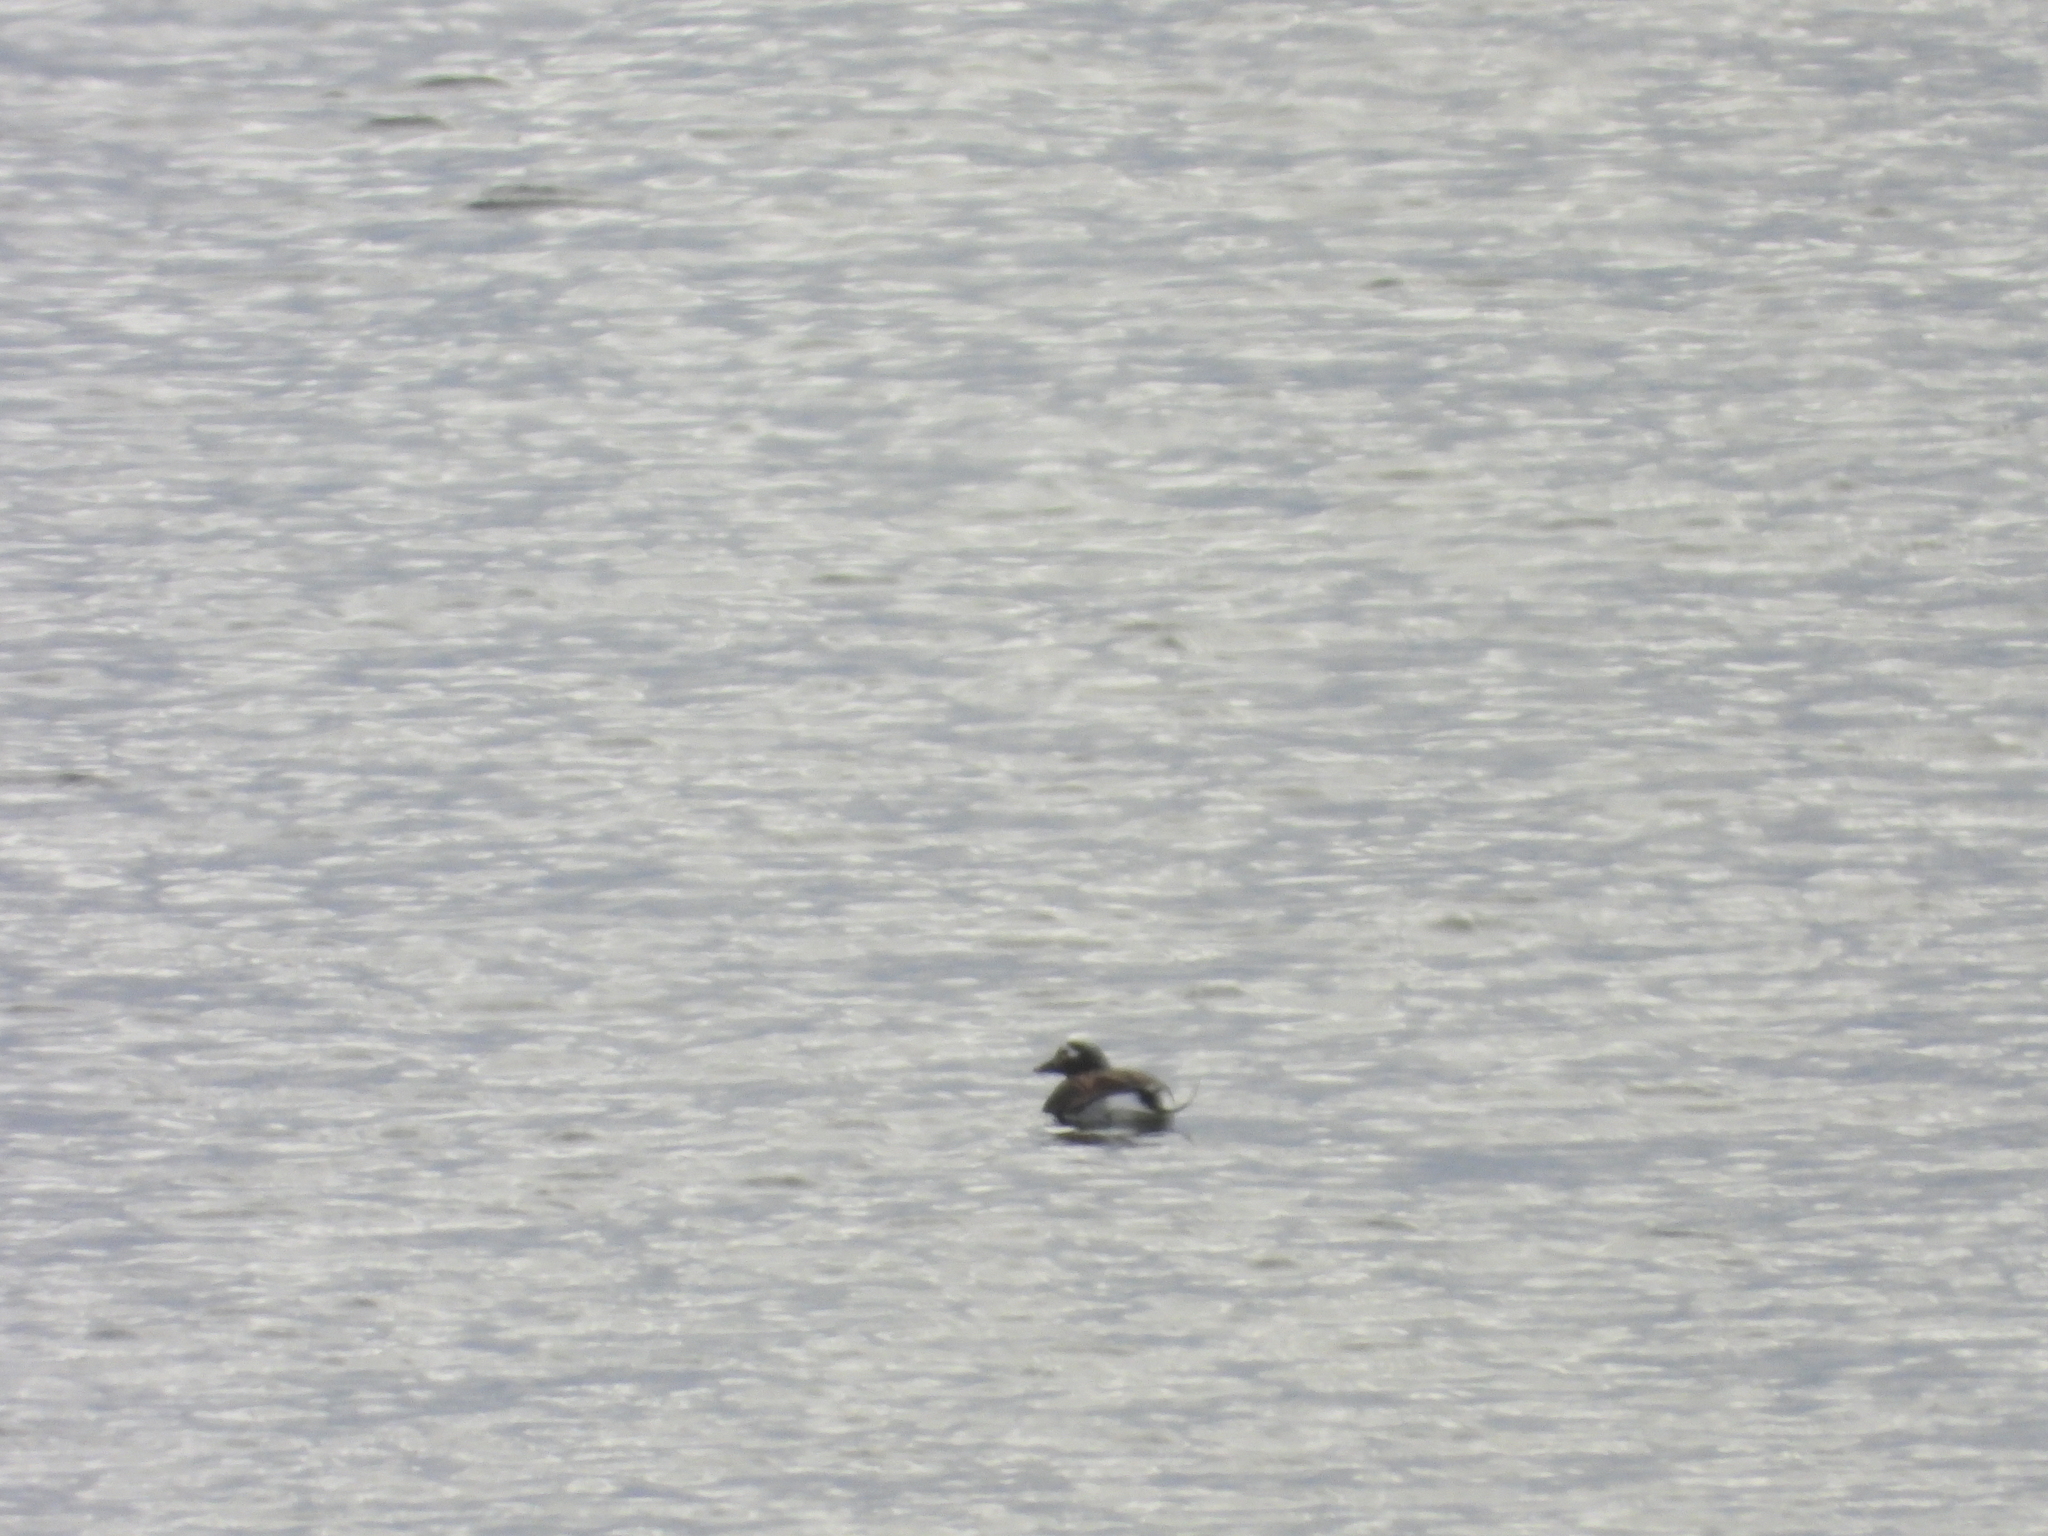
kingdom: Animalia
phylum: Chordata
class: Aves
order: Anseriformes
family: Anatidae
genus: Clangula
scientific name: Clangula hyemalis
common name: Long-tailed duck
